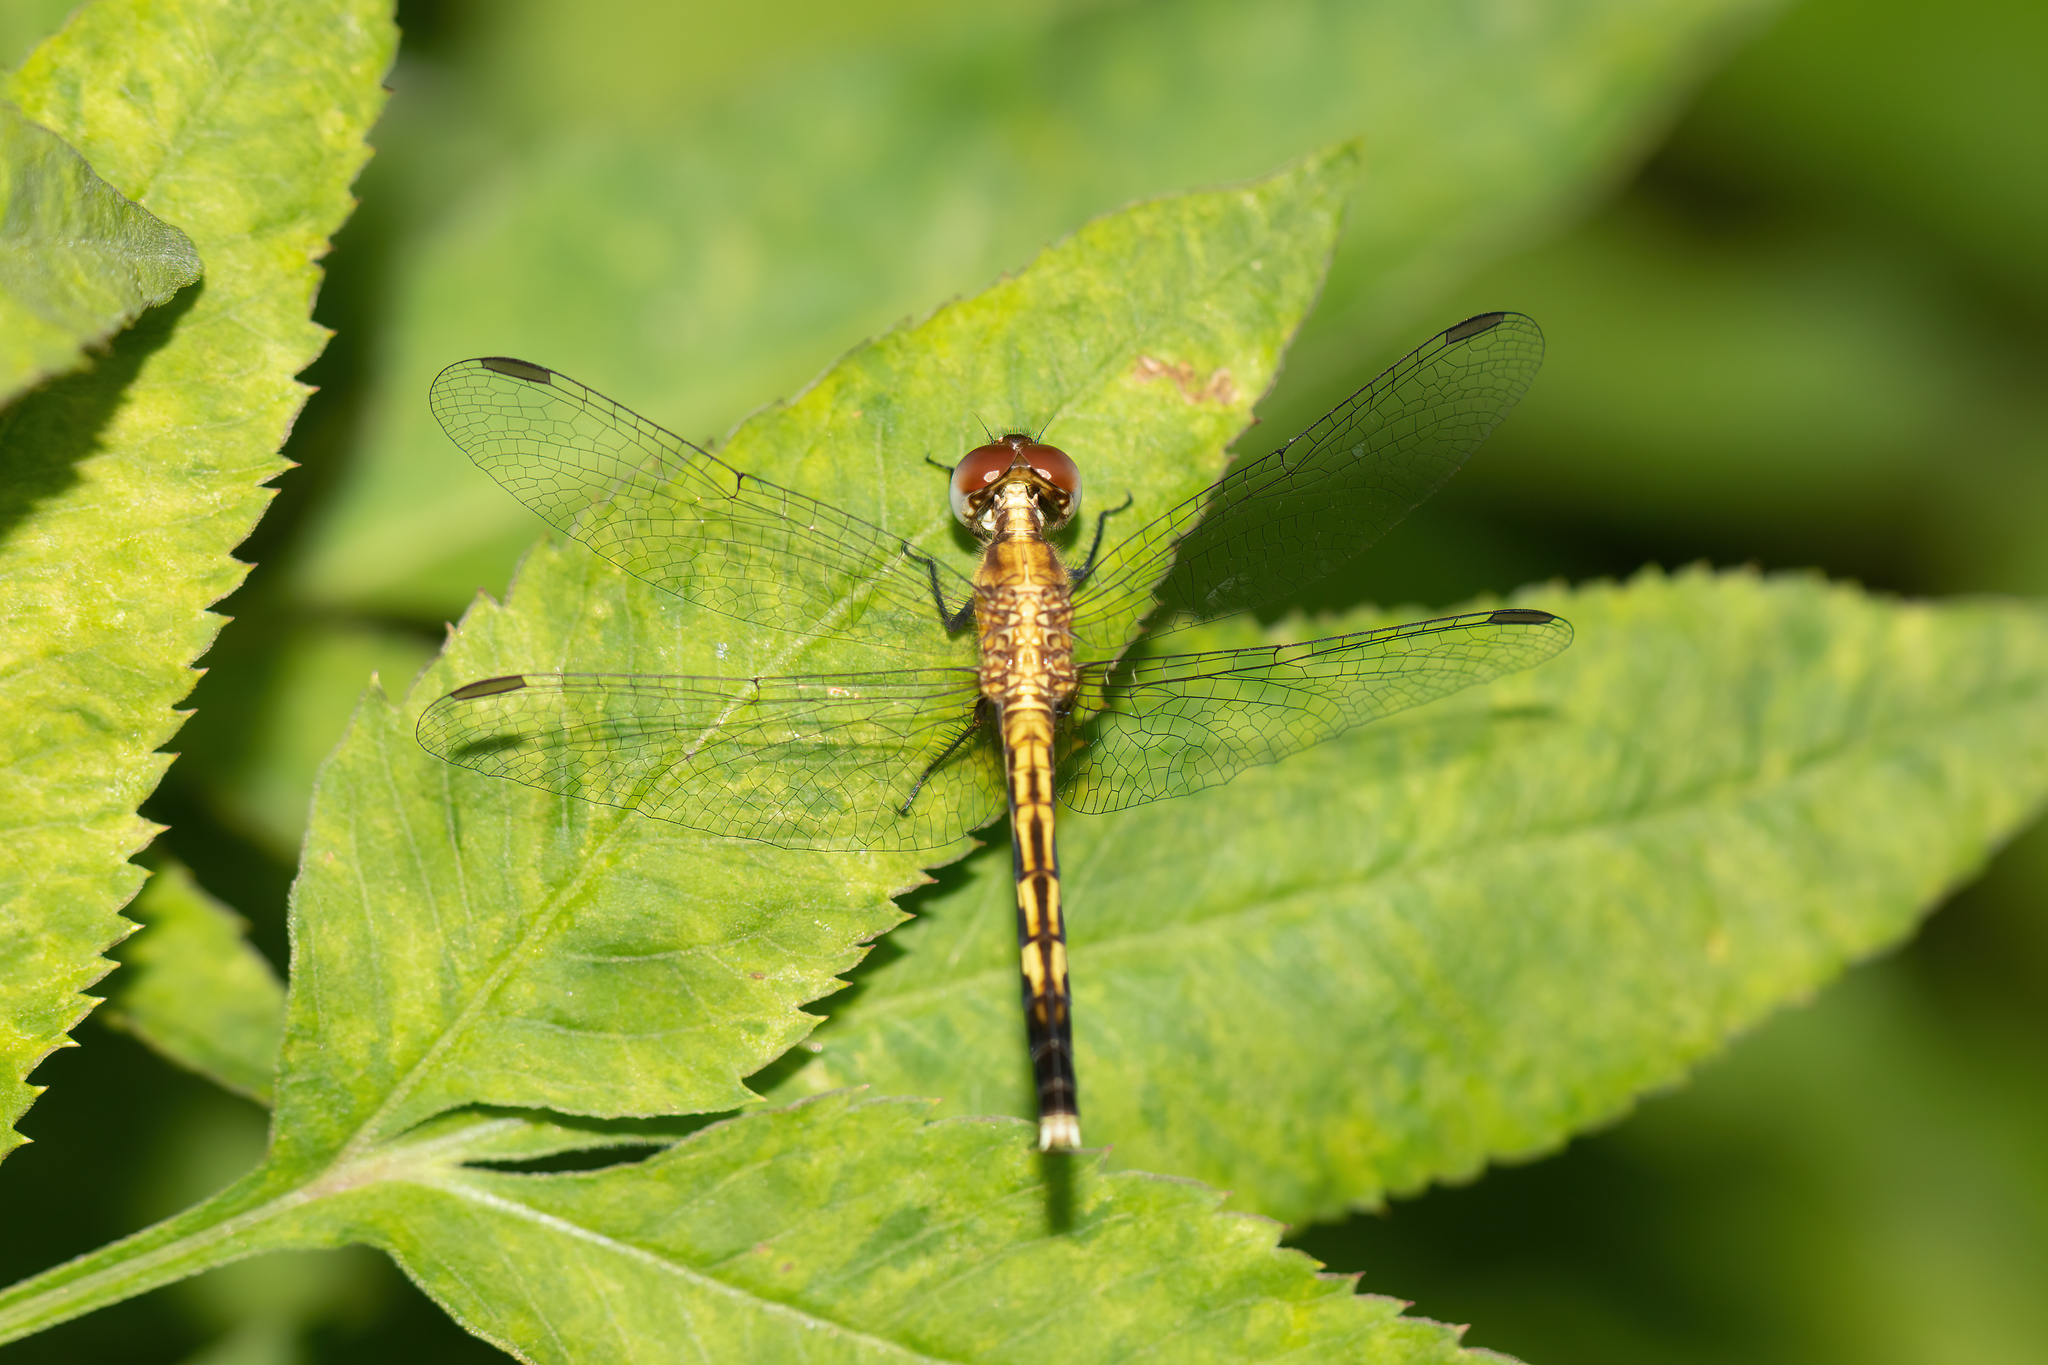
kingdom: Animalia
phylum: Arthropoda
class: Insecta
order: Odonata
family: Libellulidae
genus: Erythrodiplax
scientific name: Erythrodiplax minuscula
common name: Little blue dragonlet
